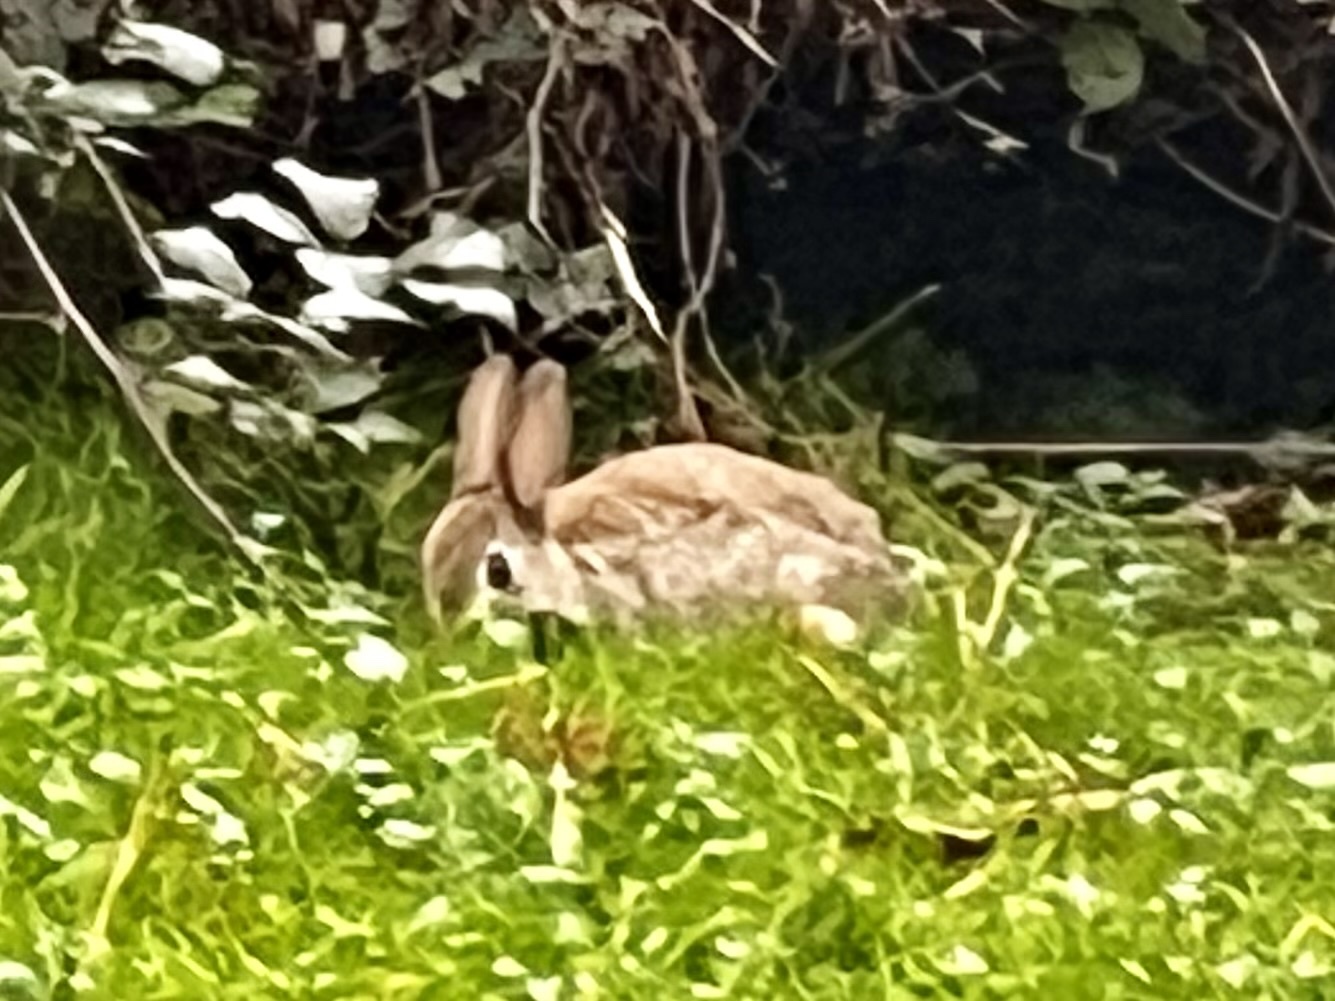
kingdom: Animalia
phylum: Chordata
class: Mammalia
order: Lagomorpha
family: Leporidae
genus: Oryctolagus
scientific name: Oryctolagus cuniculus
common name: European rabbit
